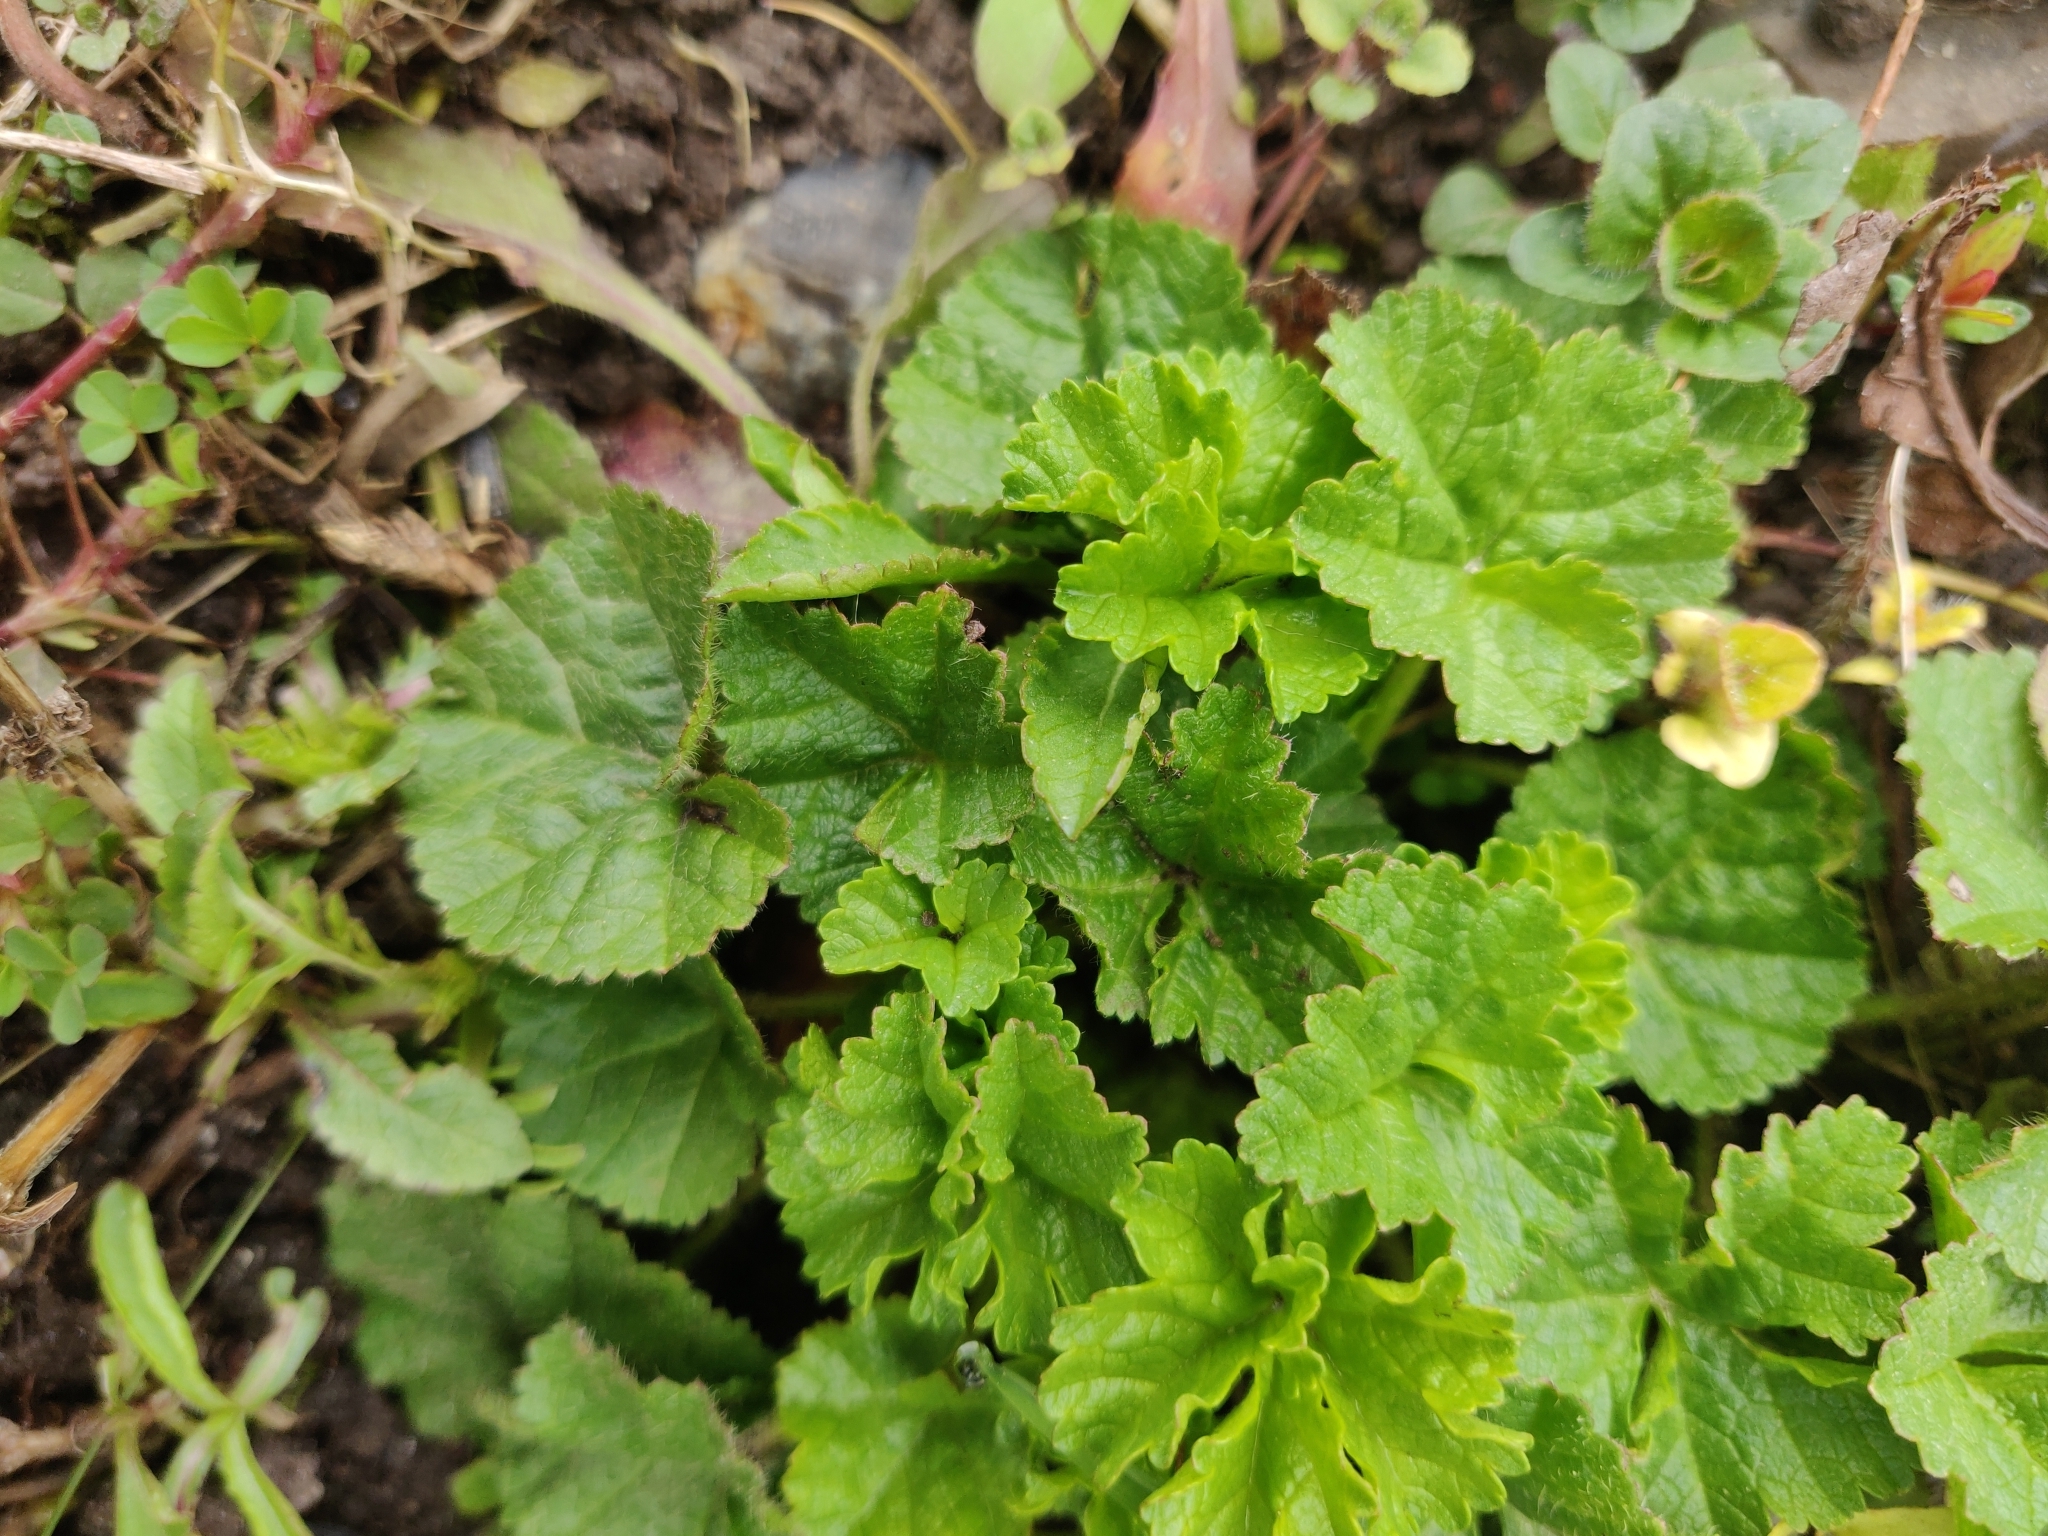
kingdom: Plantae
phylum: Tracheophyta
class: Magnoliopsida
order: Malvales
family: Malvaceae
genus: Malva
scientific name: Malva sylvestris
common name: Common mallow
